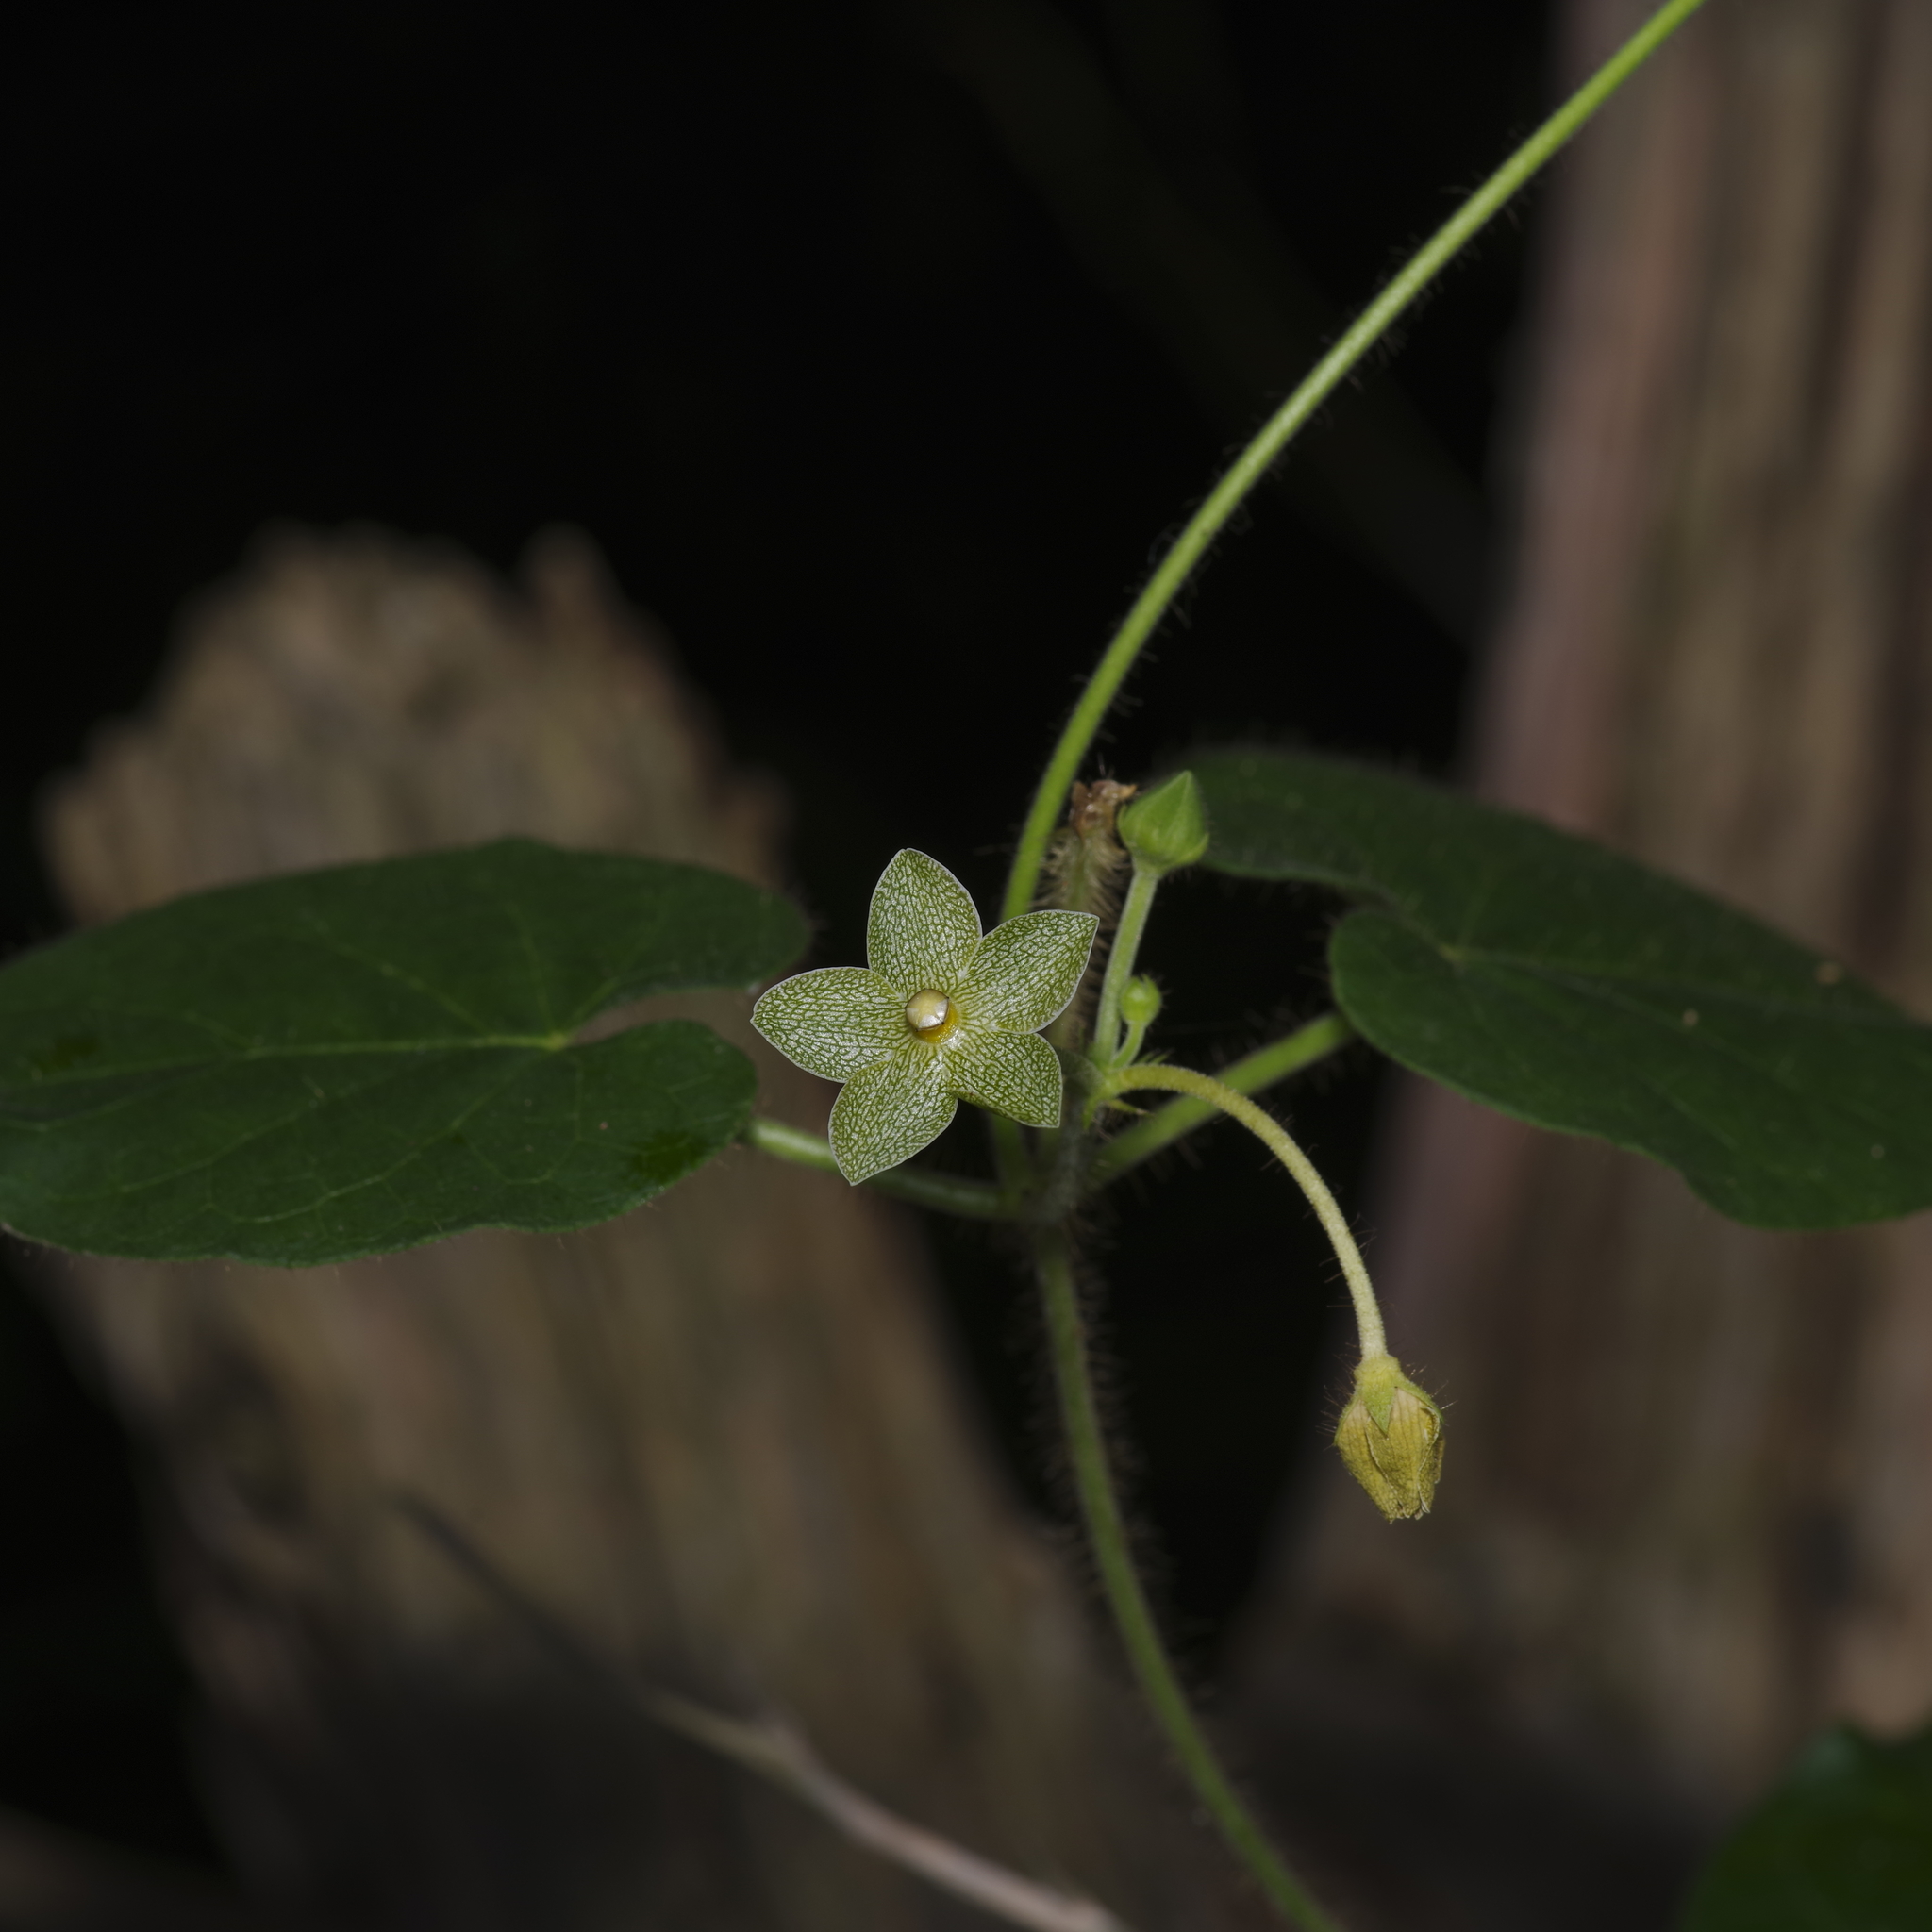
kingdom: Plantae
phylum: Tracheophyta
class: Magnoliopsida
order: Gentianales
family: Apocynaceae
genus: Dictyanthus
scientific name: Dictyanthus reticulatus
